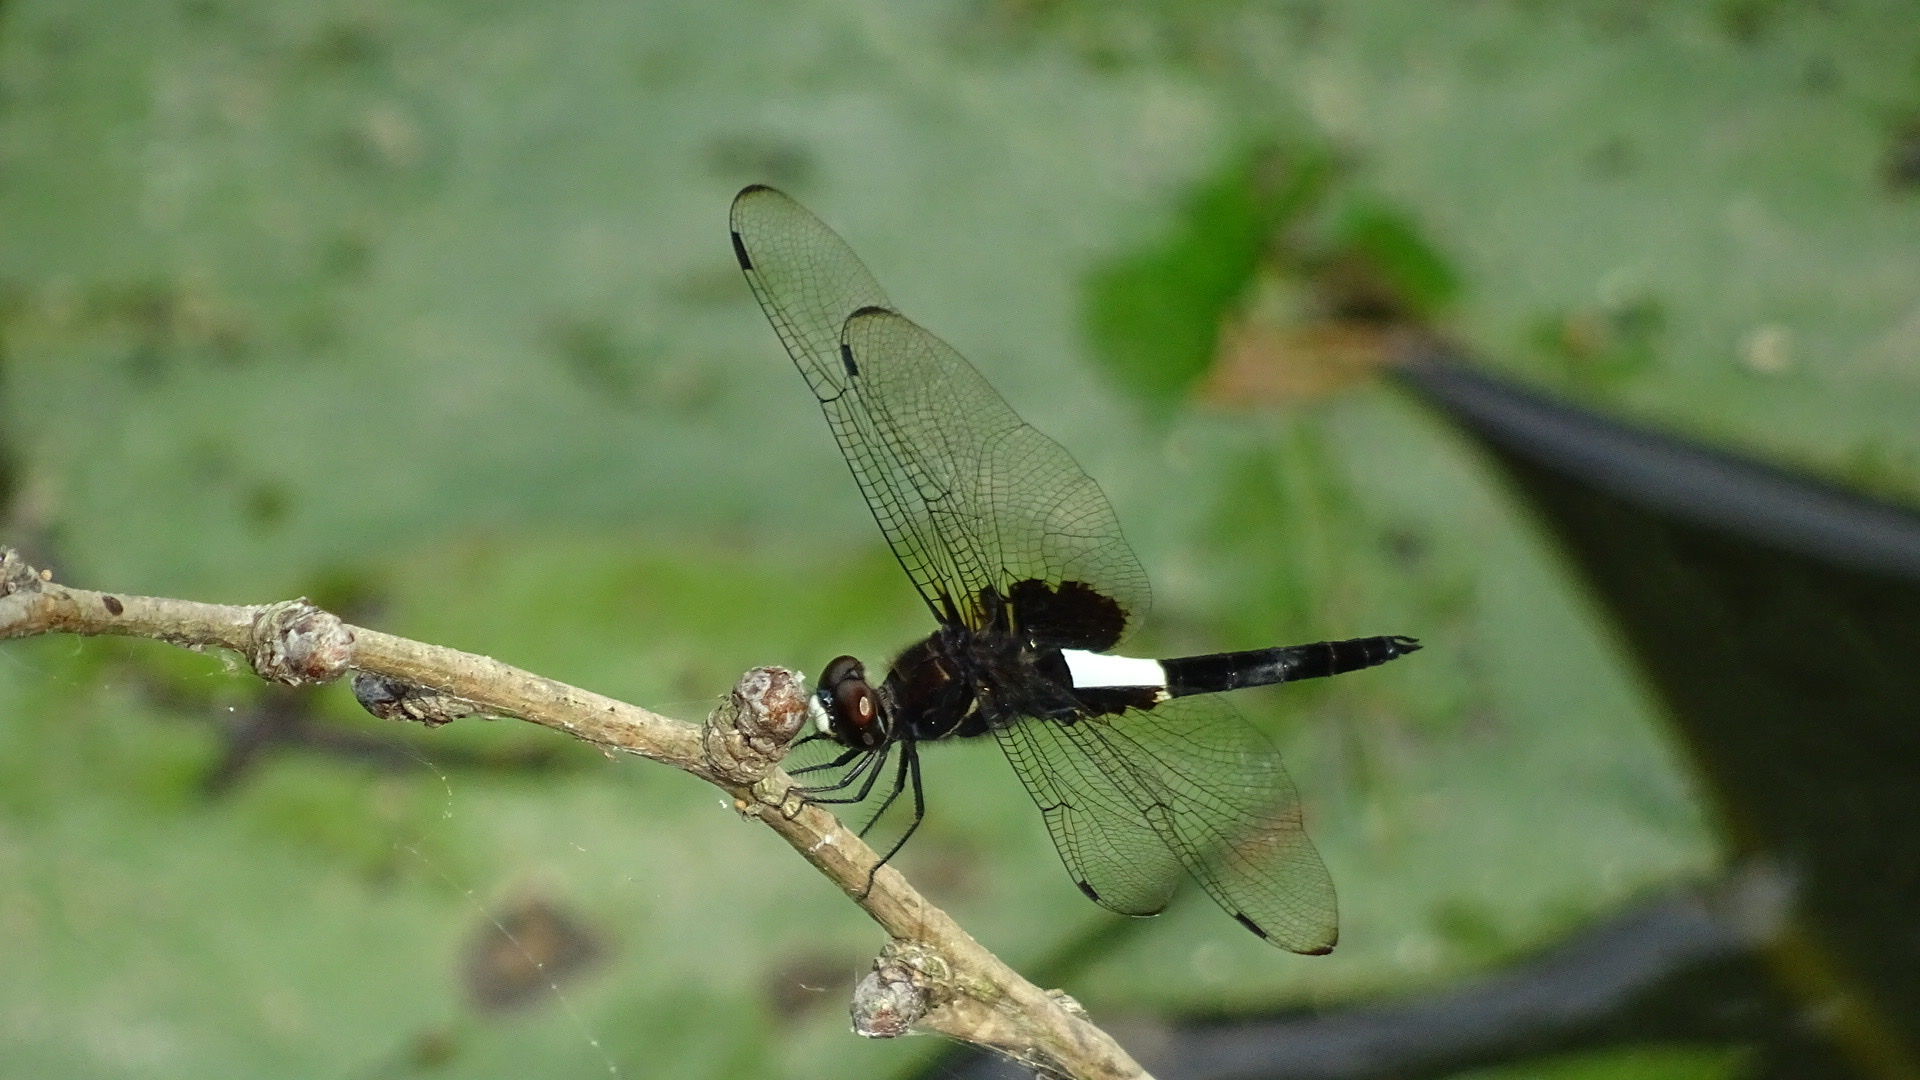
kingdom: Animalia
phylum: Arthropoda
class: Insecta
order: Odonata
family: Libellulidae
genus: Pseudothemis
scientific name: Pseudothemis zonata
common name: Pied skimmer
